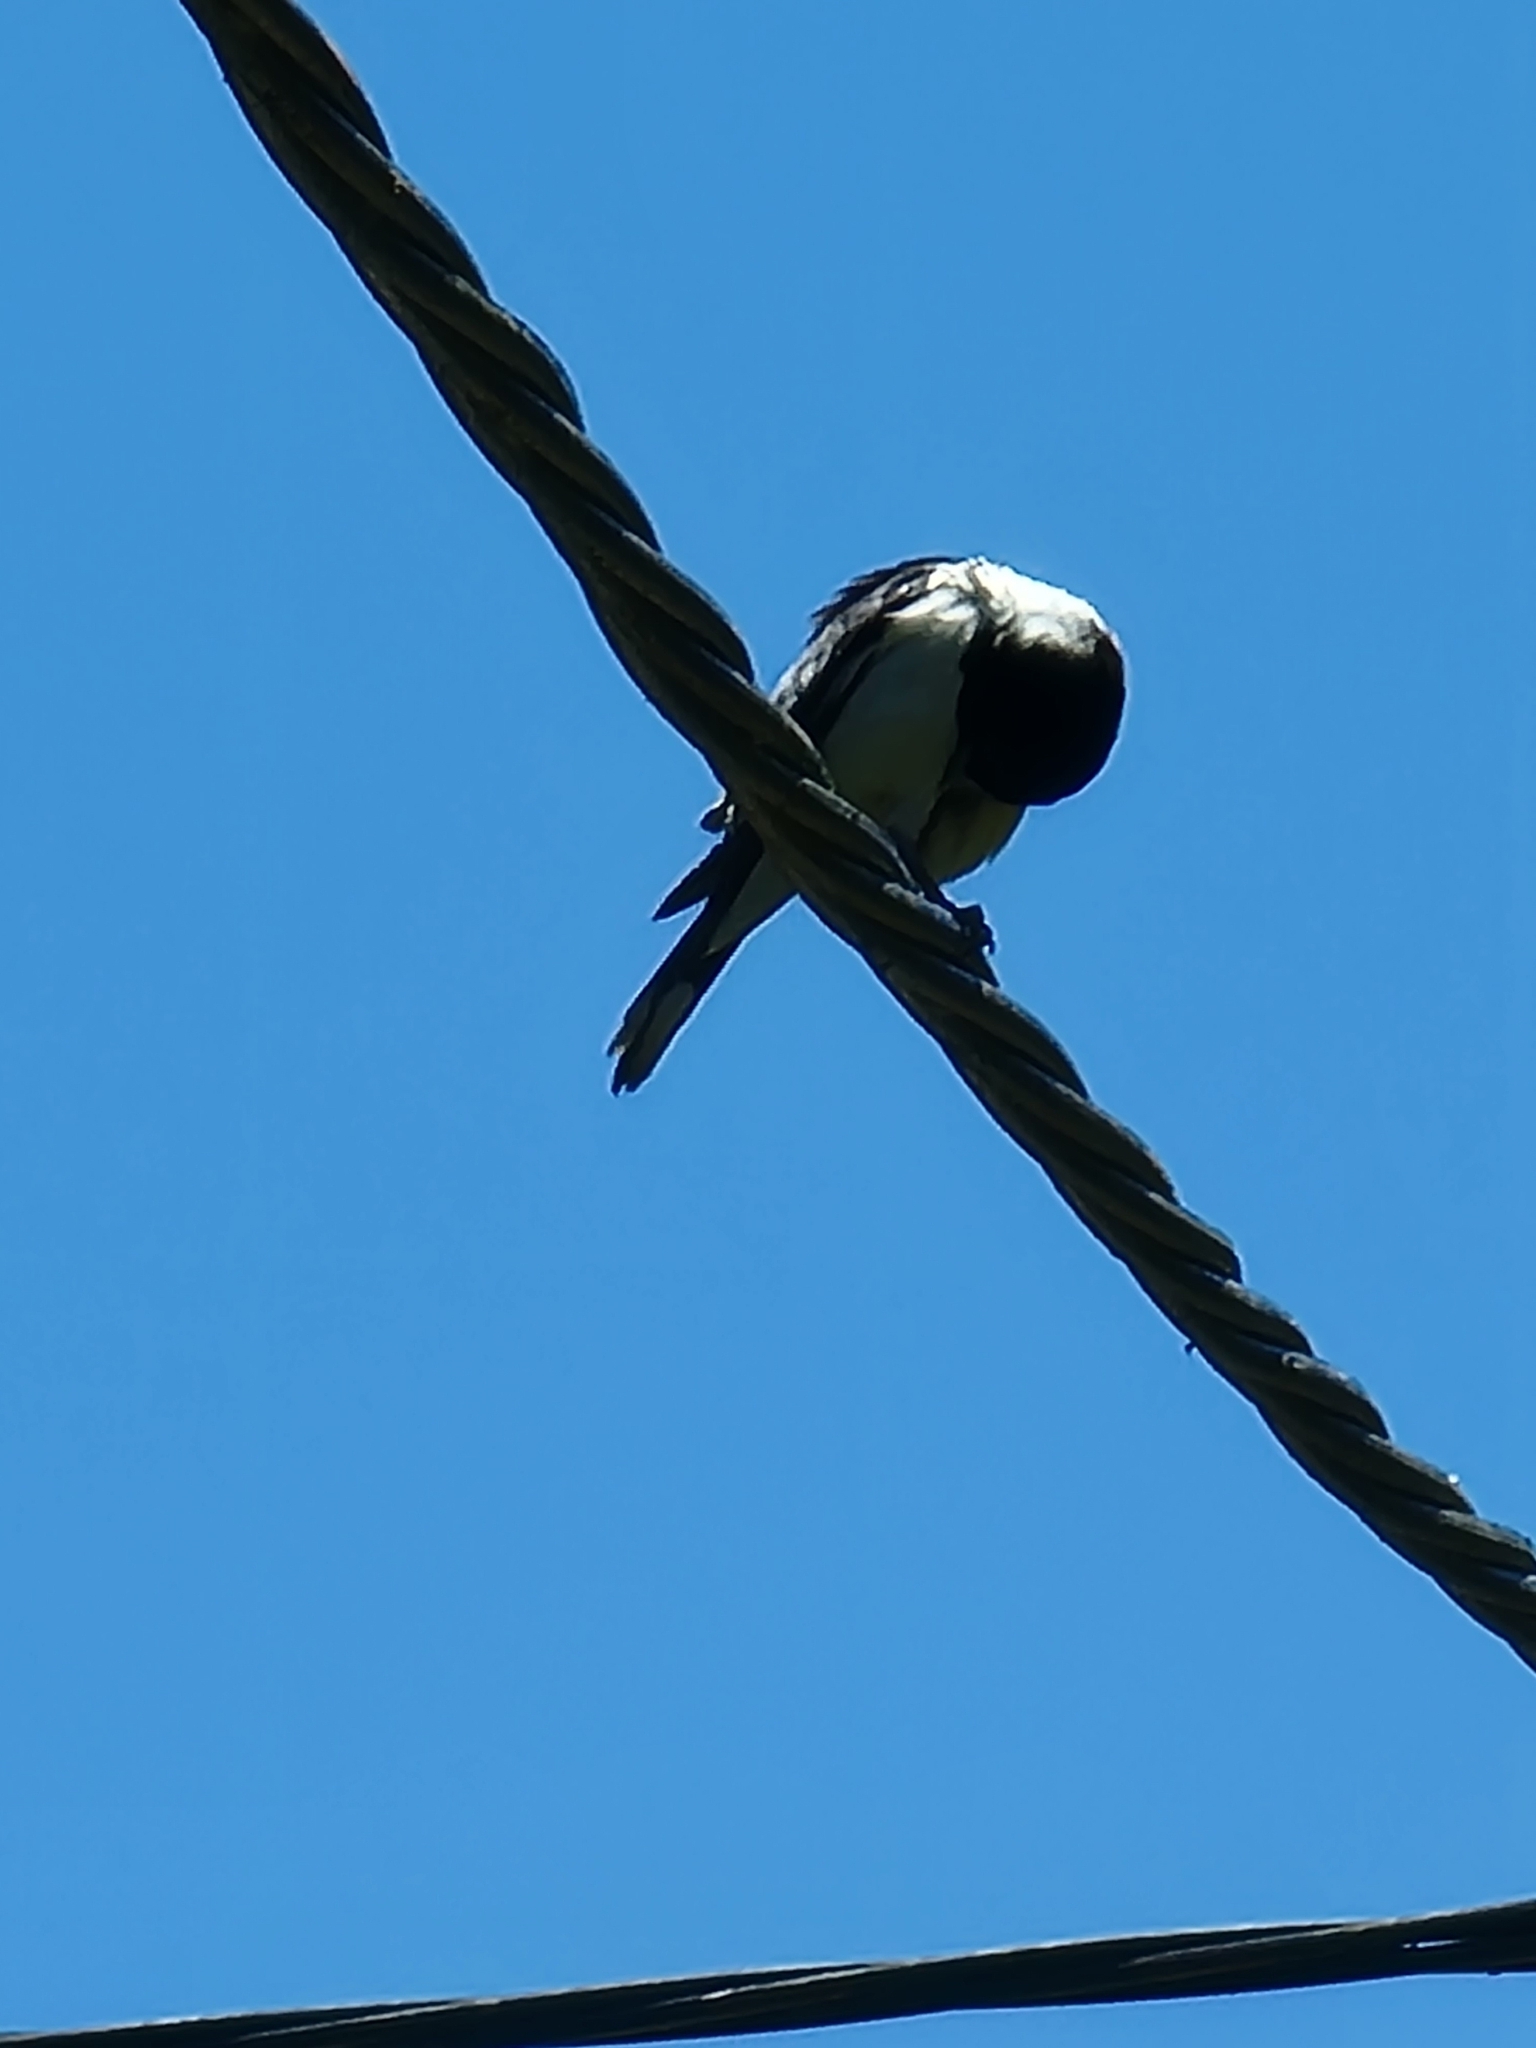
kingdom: Animalia
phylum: Chordata
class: Aves
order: Passeriformes
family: Cracticidae
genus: Cracticus
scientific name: Cracticus nigrogularis
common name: Pied butcherbird
